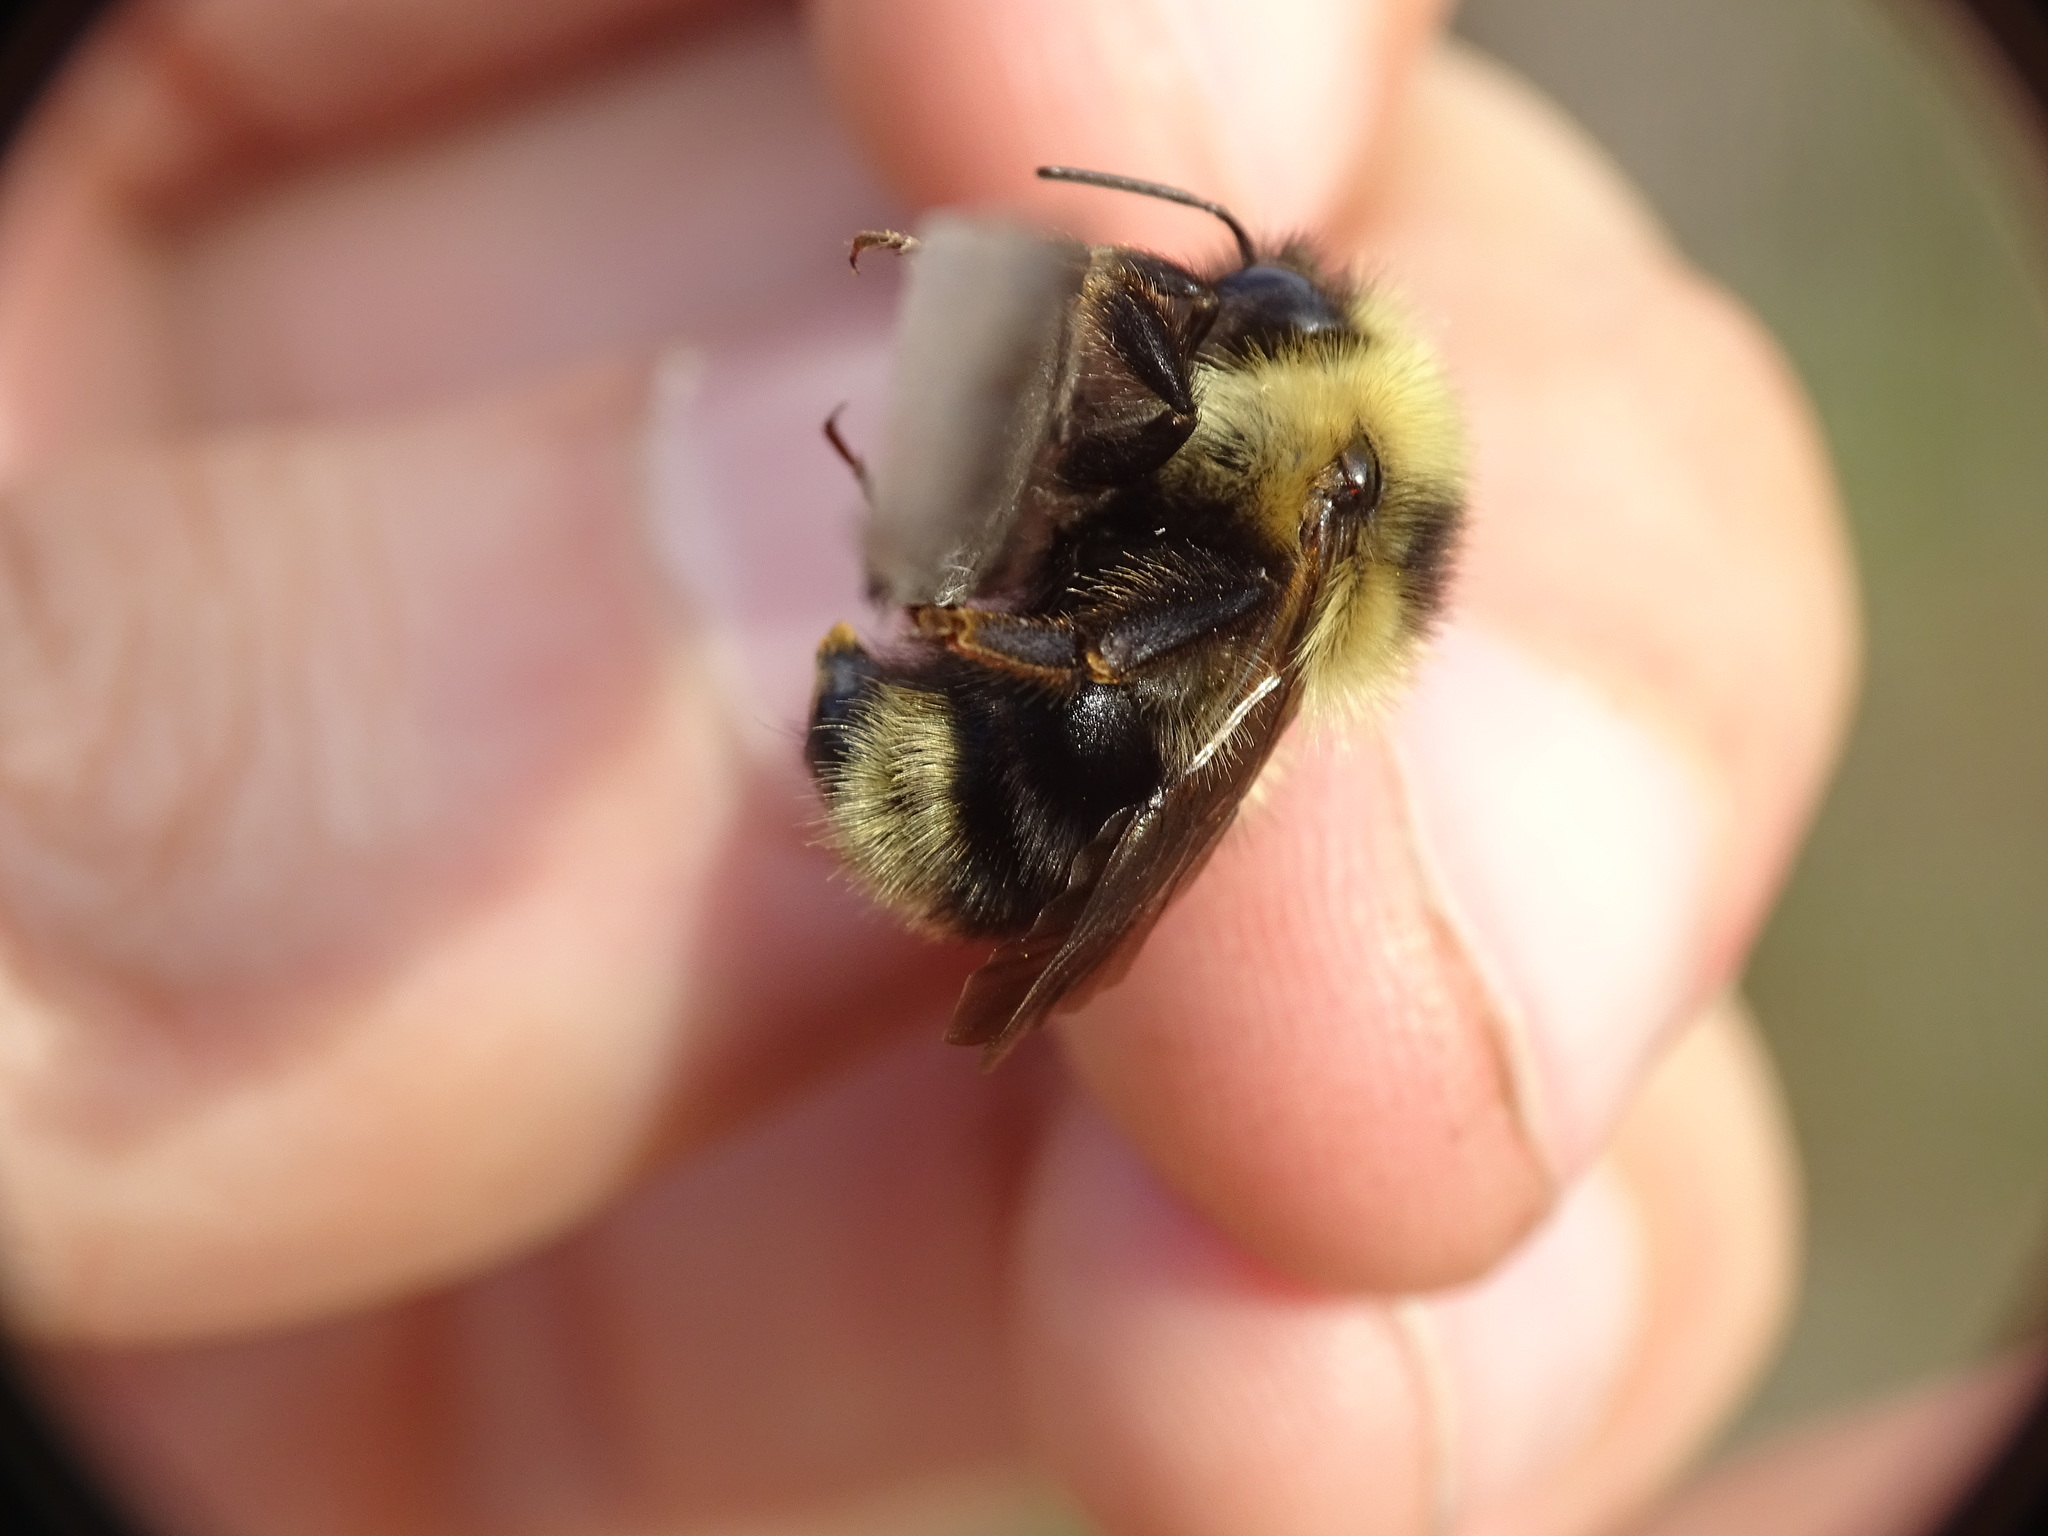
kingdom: Animalia
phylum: Arthropoda
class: Insecta
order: Hymenoptera
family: Apidae
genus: Bombus
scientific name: Bombus flavidus
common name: Fernald cuckoo bumble bee
